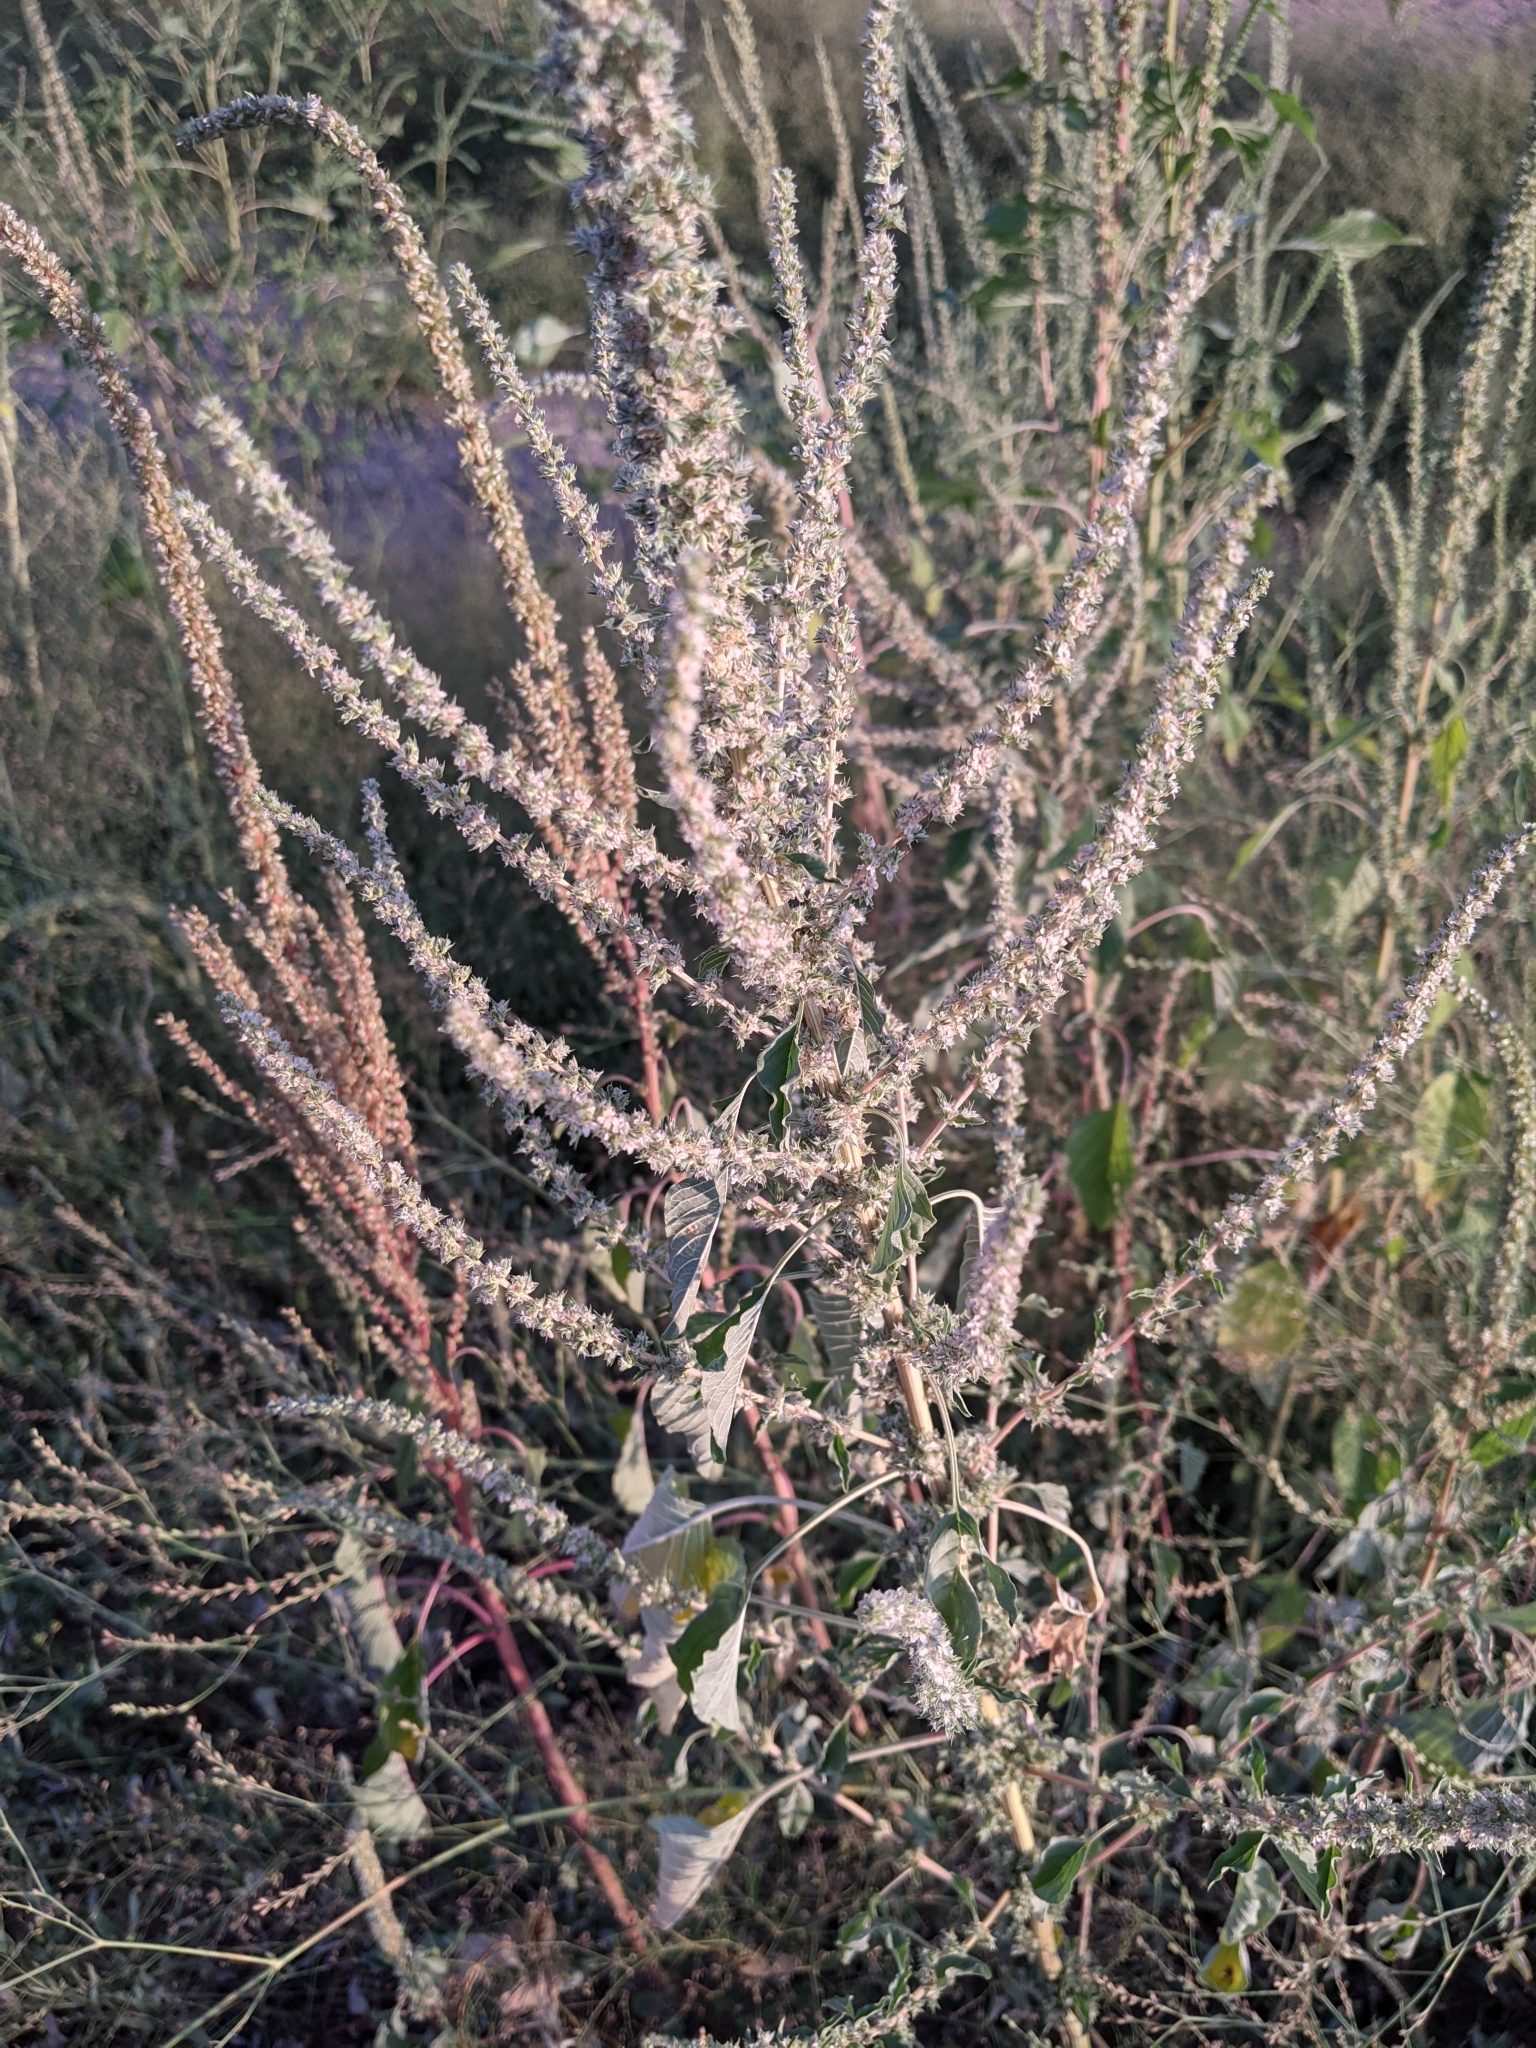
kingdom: Plantae
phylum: Tracheophyta
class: Magnoliopsida
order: Caryophyllales
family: Amaranthaceae
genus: Amaranthus
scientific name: Amaranthus palmeri
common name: Dioecious amaranth
